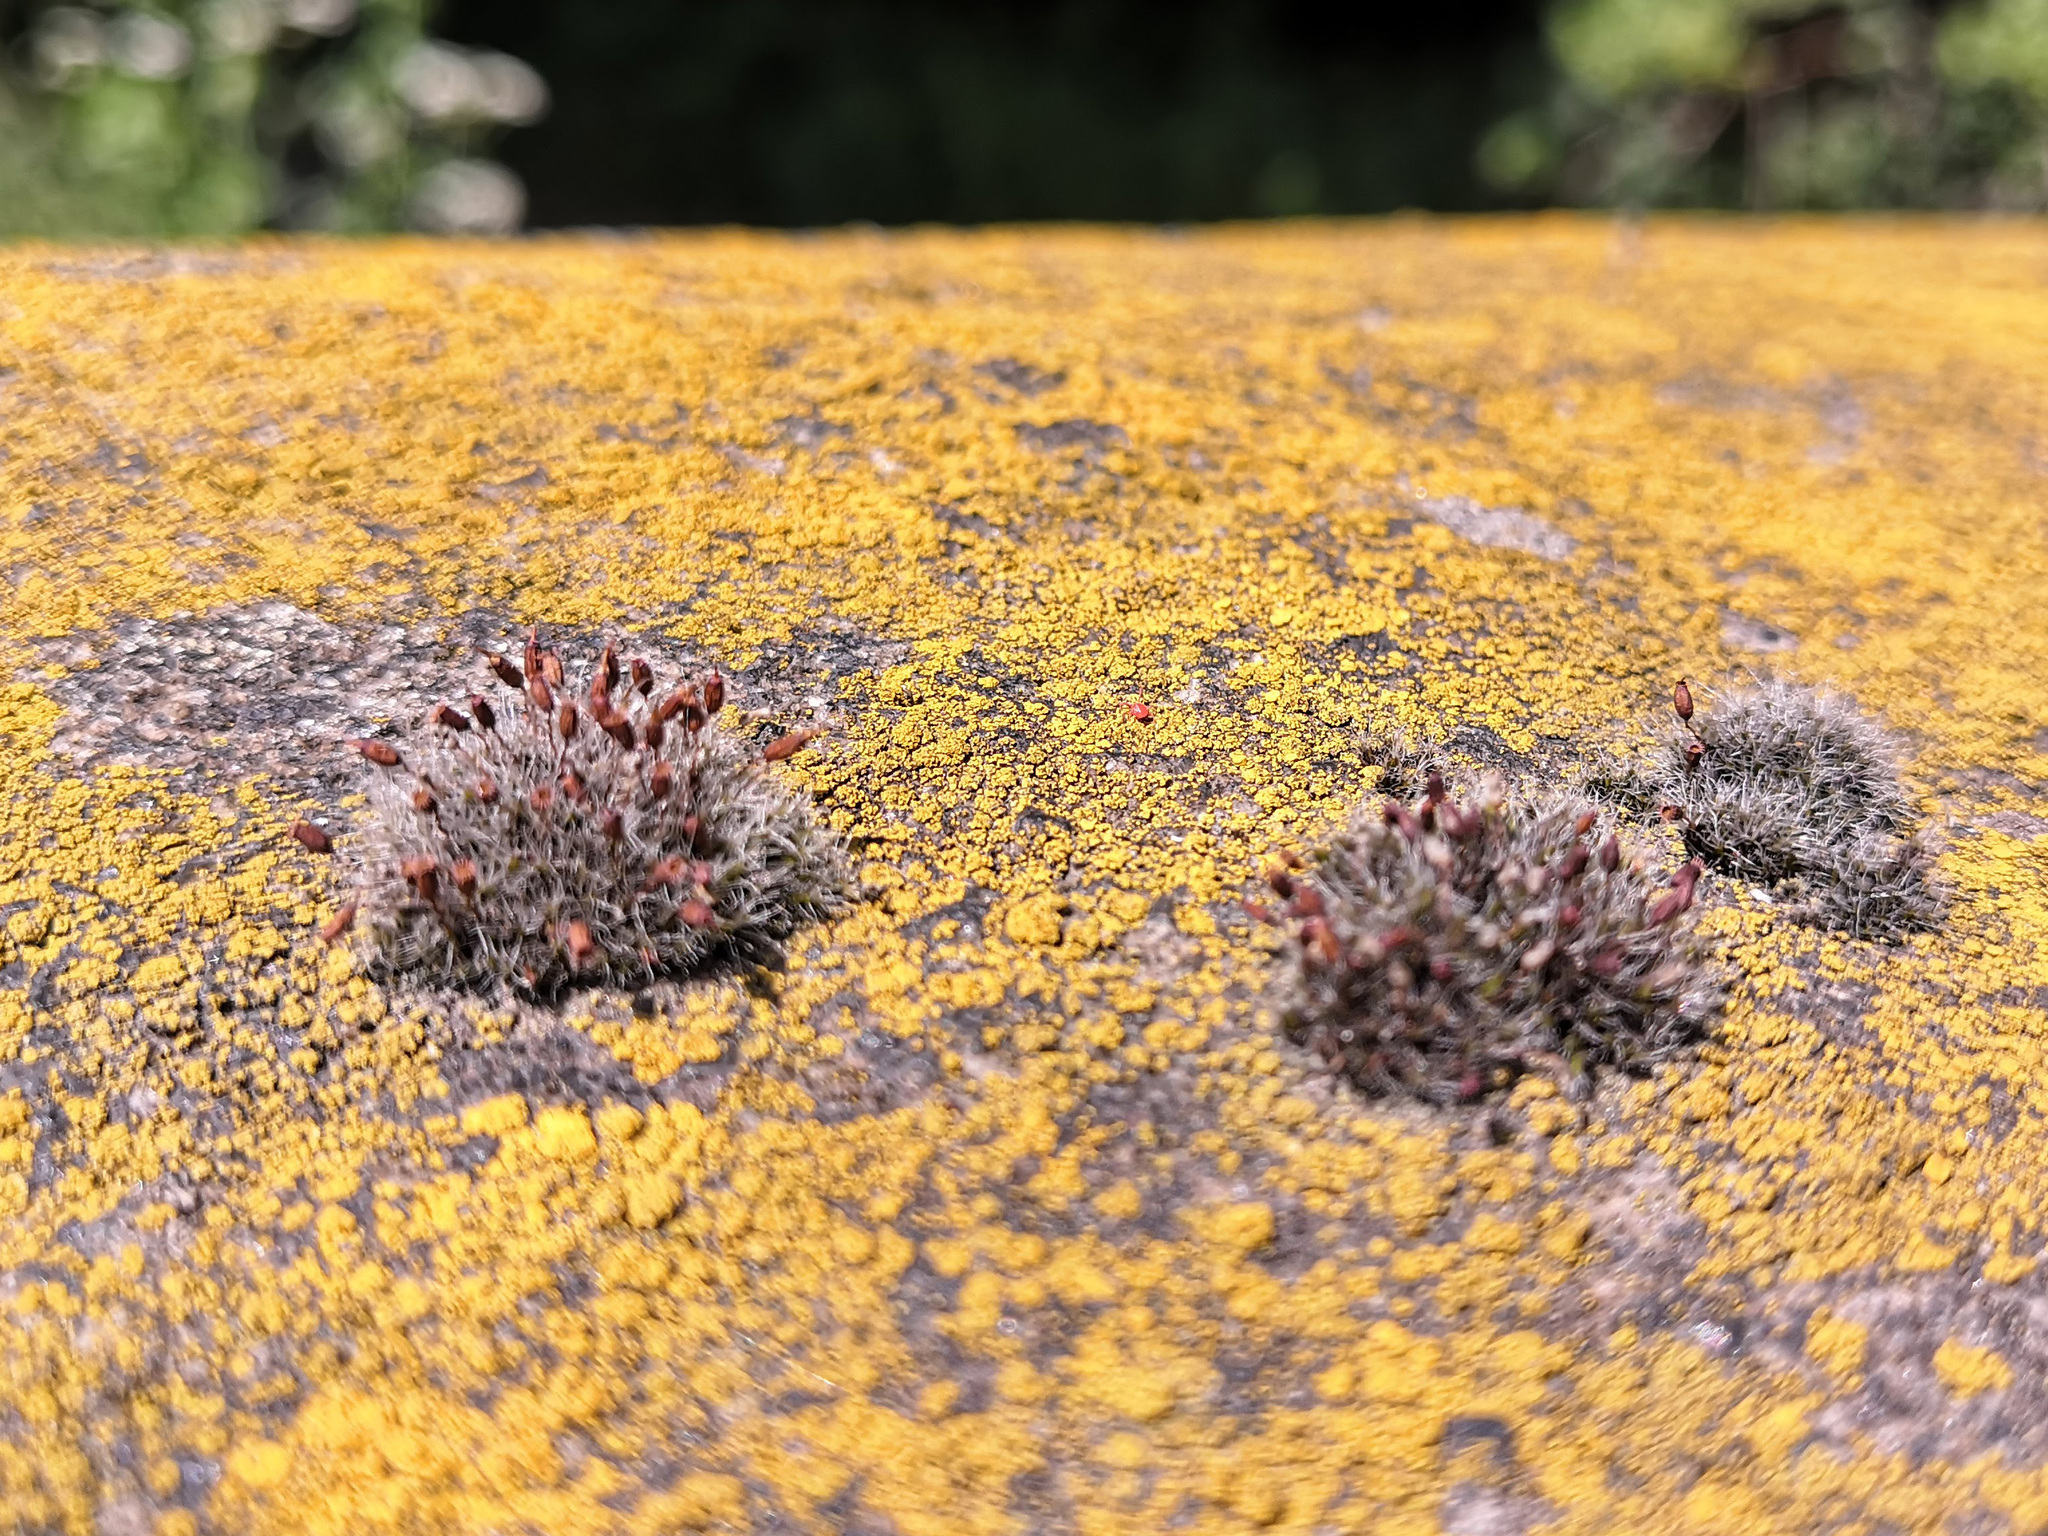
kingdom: Plantae
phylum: Bryophyta
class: Bryopsida
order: Grimmiales
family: Grimmiaceae
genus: Grimmia
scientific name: Grimmia pulvinata
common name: Grey-cushioned grimmia
